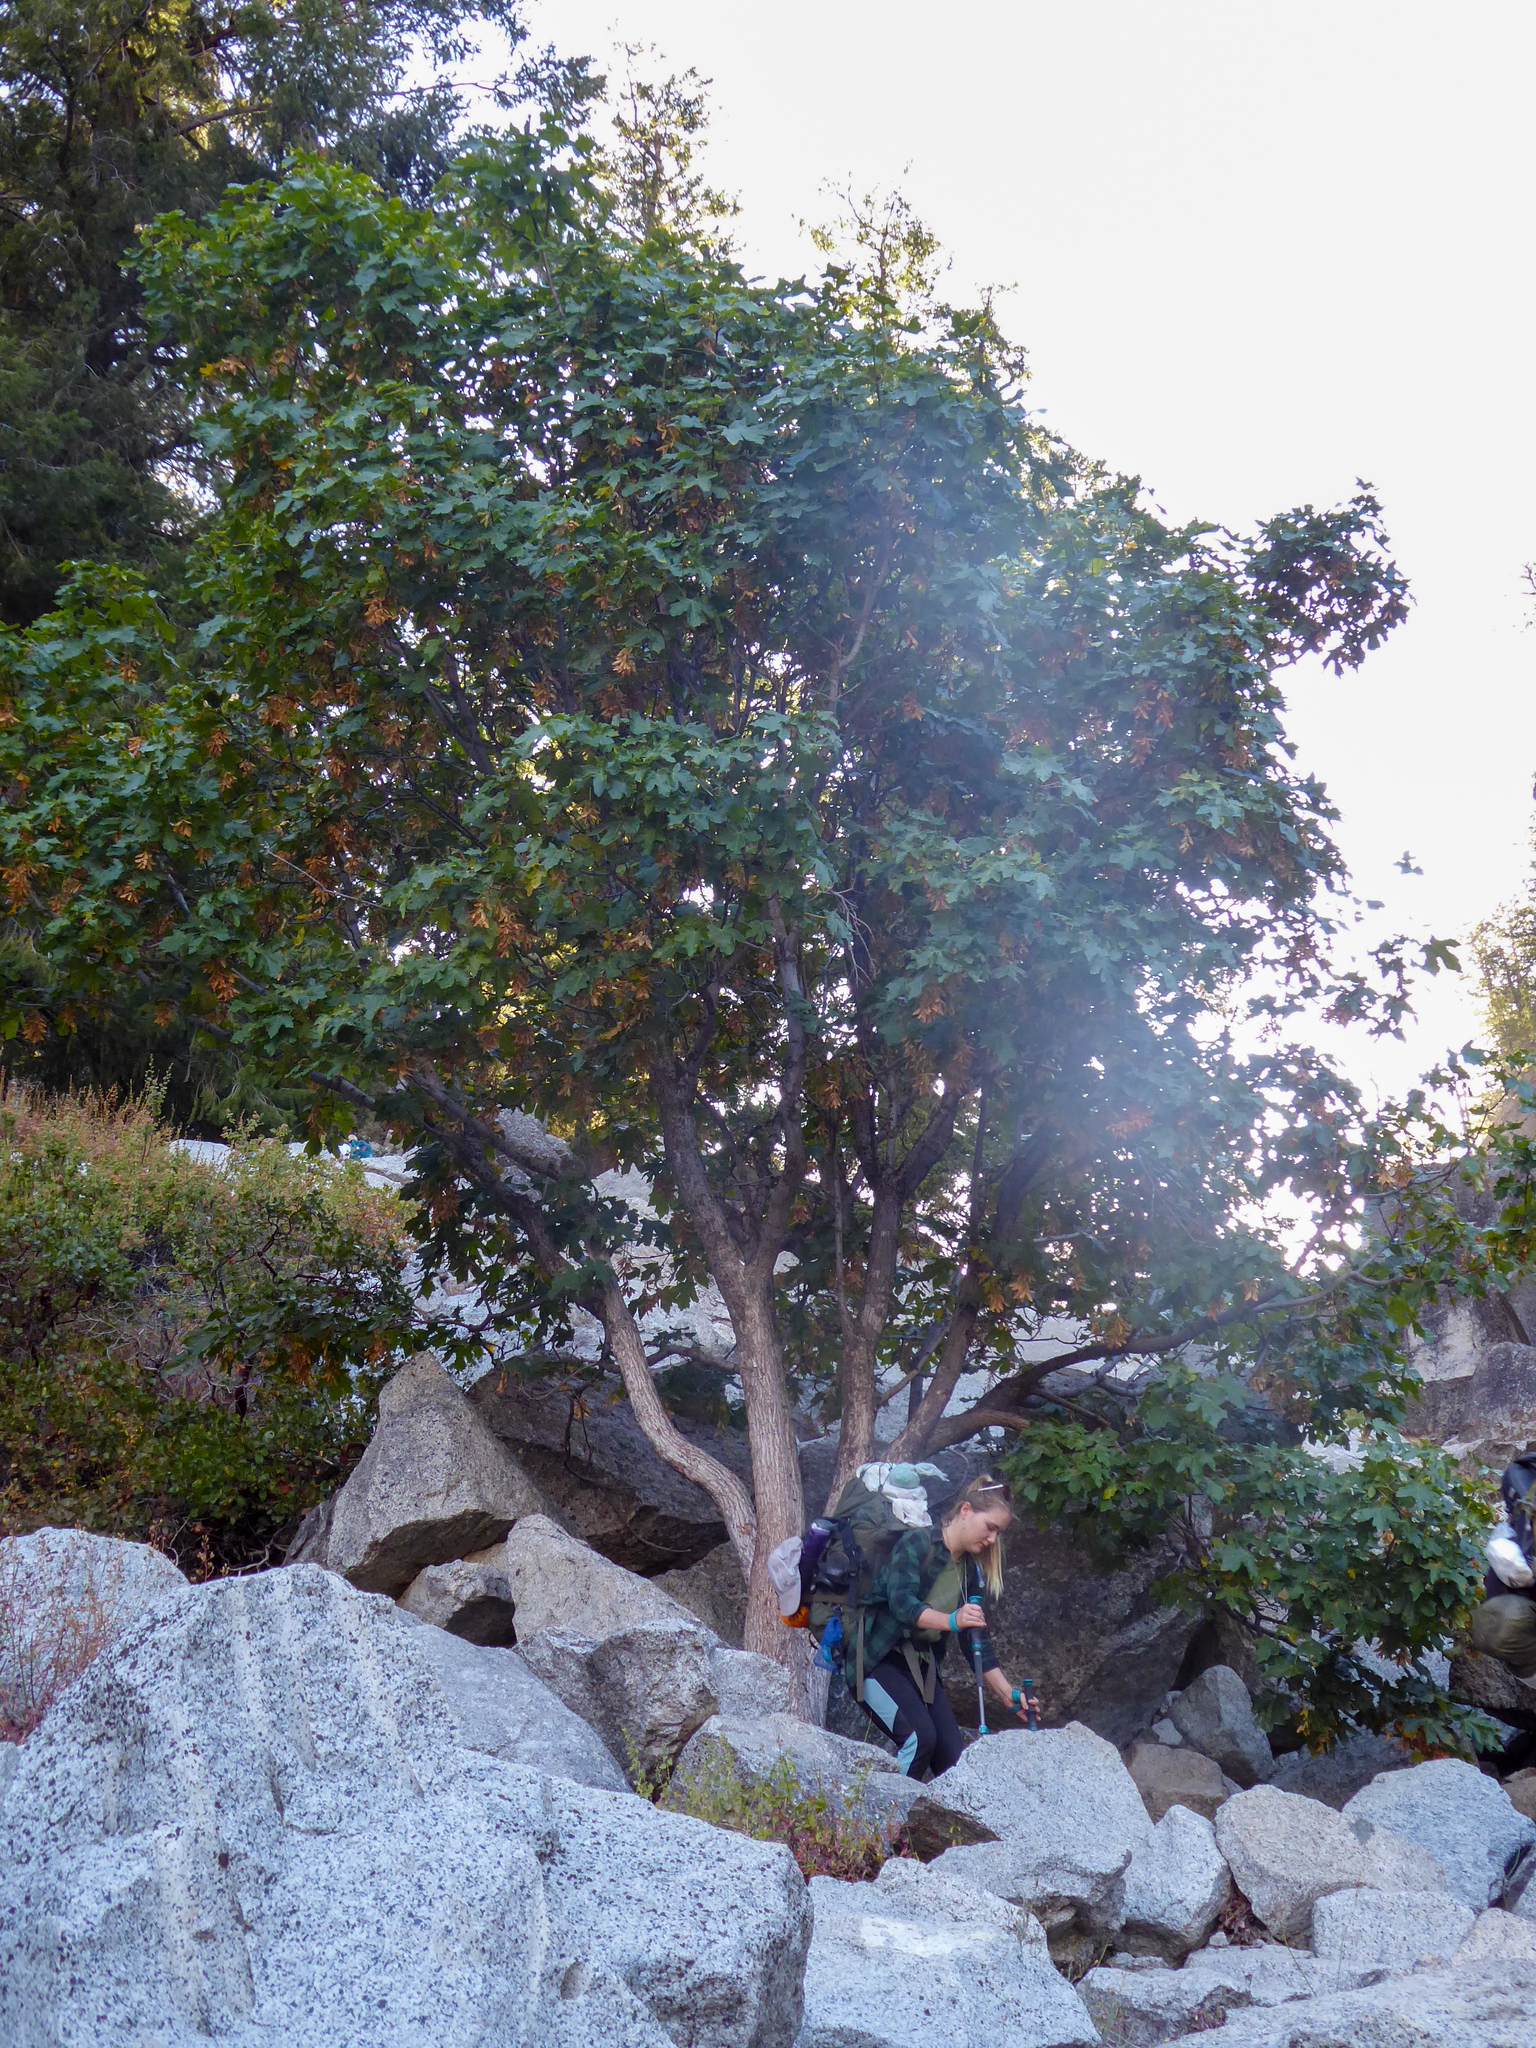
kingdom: Plantae
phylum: Tracheophyta
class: Magnoliopsida
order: Sapindales
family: Sapindaceae
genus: Acer
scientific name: Acer macrophyllum
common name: Oregon maple
